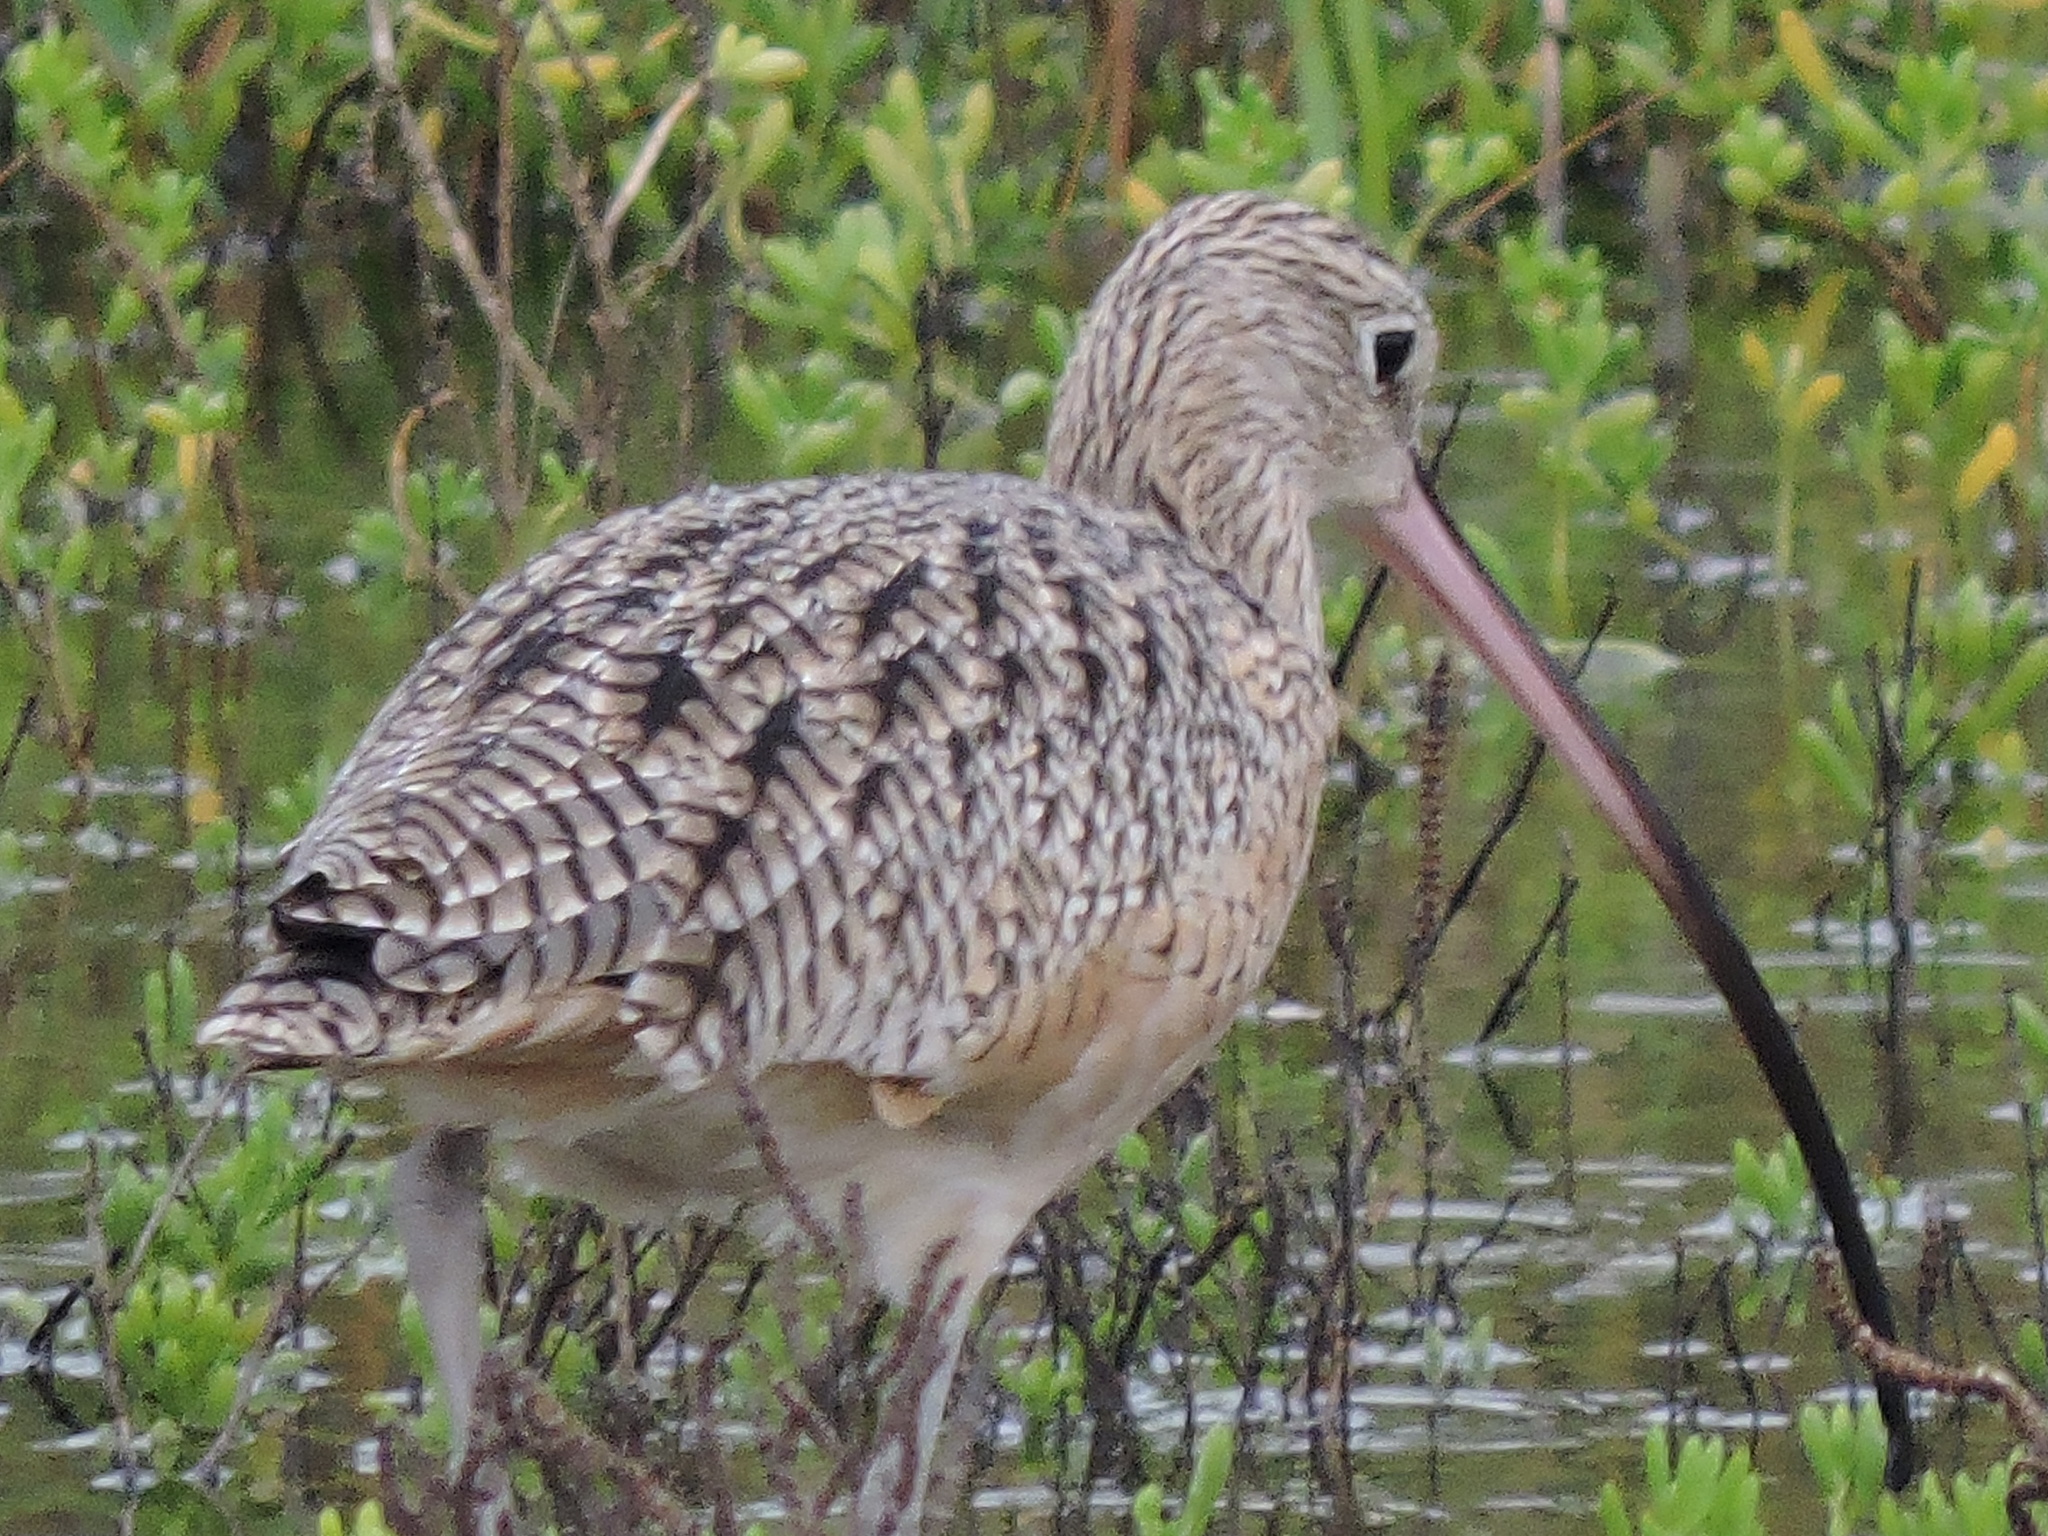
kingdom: Animalia
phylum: Chordata
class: Aves
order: Charadriiformes
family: Scolopacidae
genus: Numenius
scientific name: Numenius americanus
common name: Long-billed curlew
